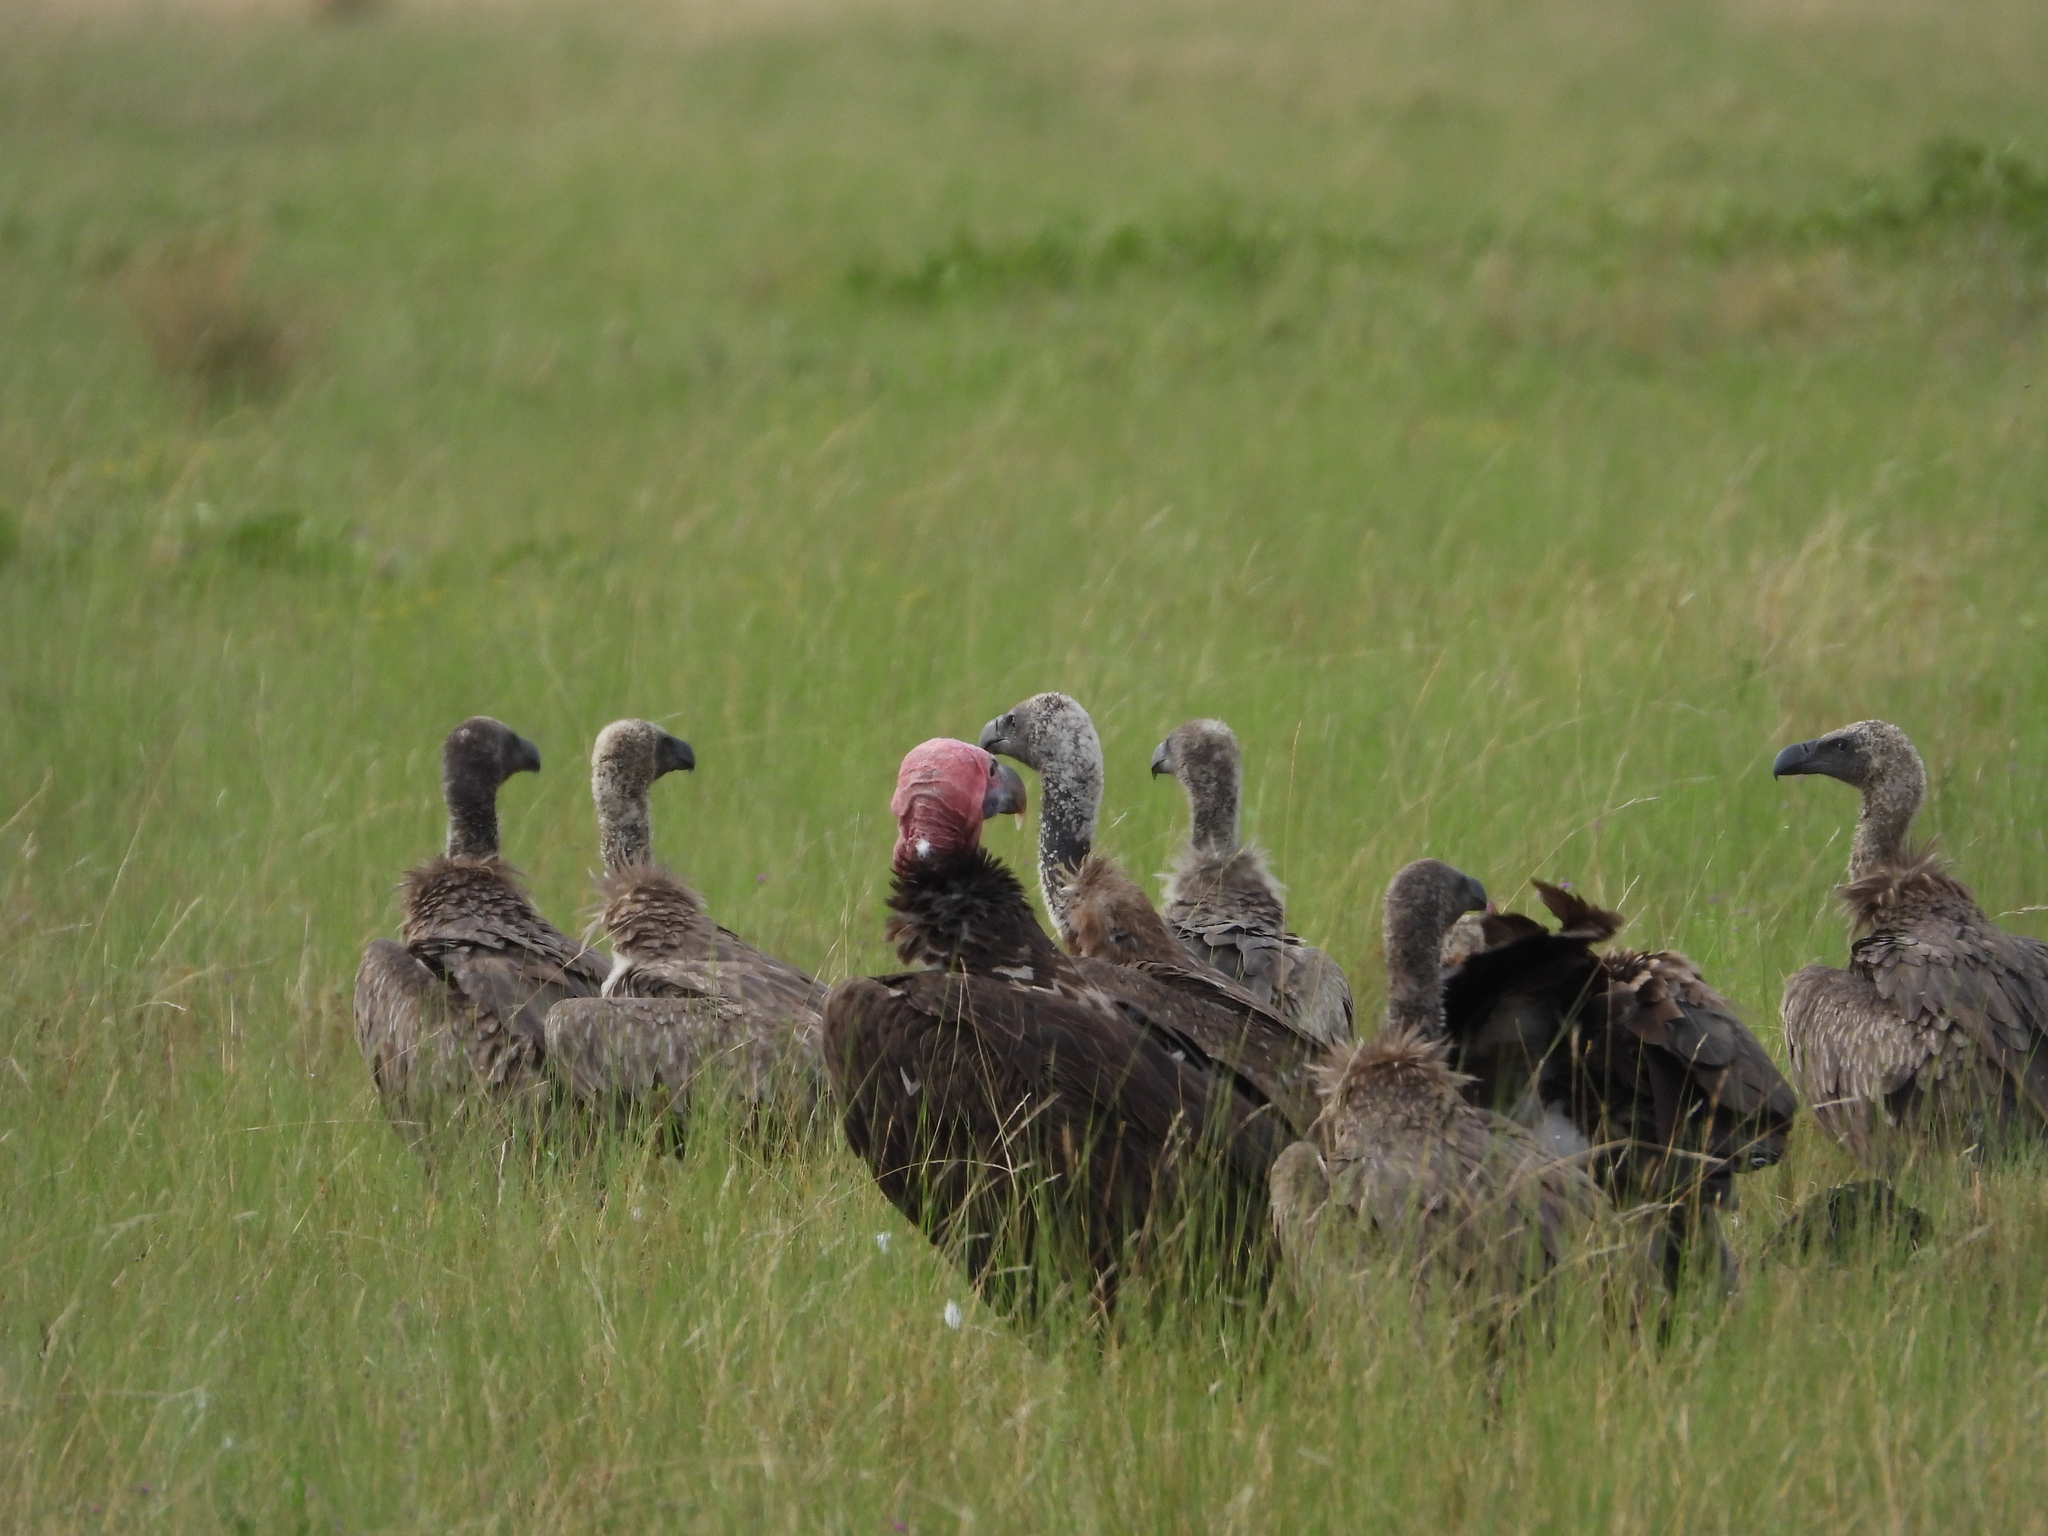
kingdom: Animalia
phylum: Chordata
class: Aves
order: Accipitriformes
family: Accipitridae
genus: Torgos
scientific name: Torgos tracheliotos
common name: Lappet-faced vulture
